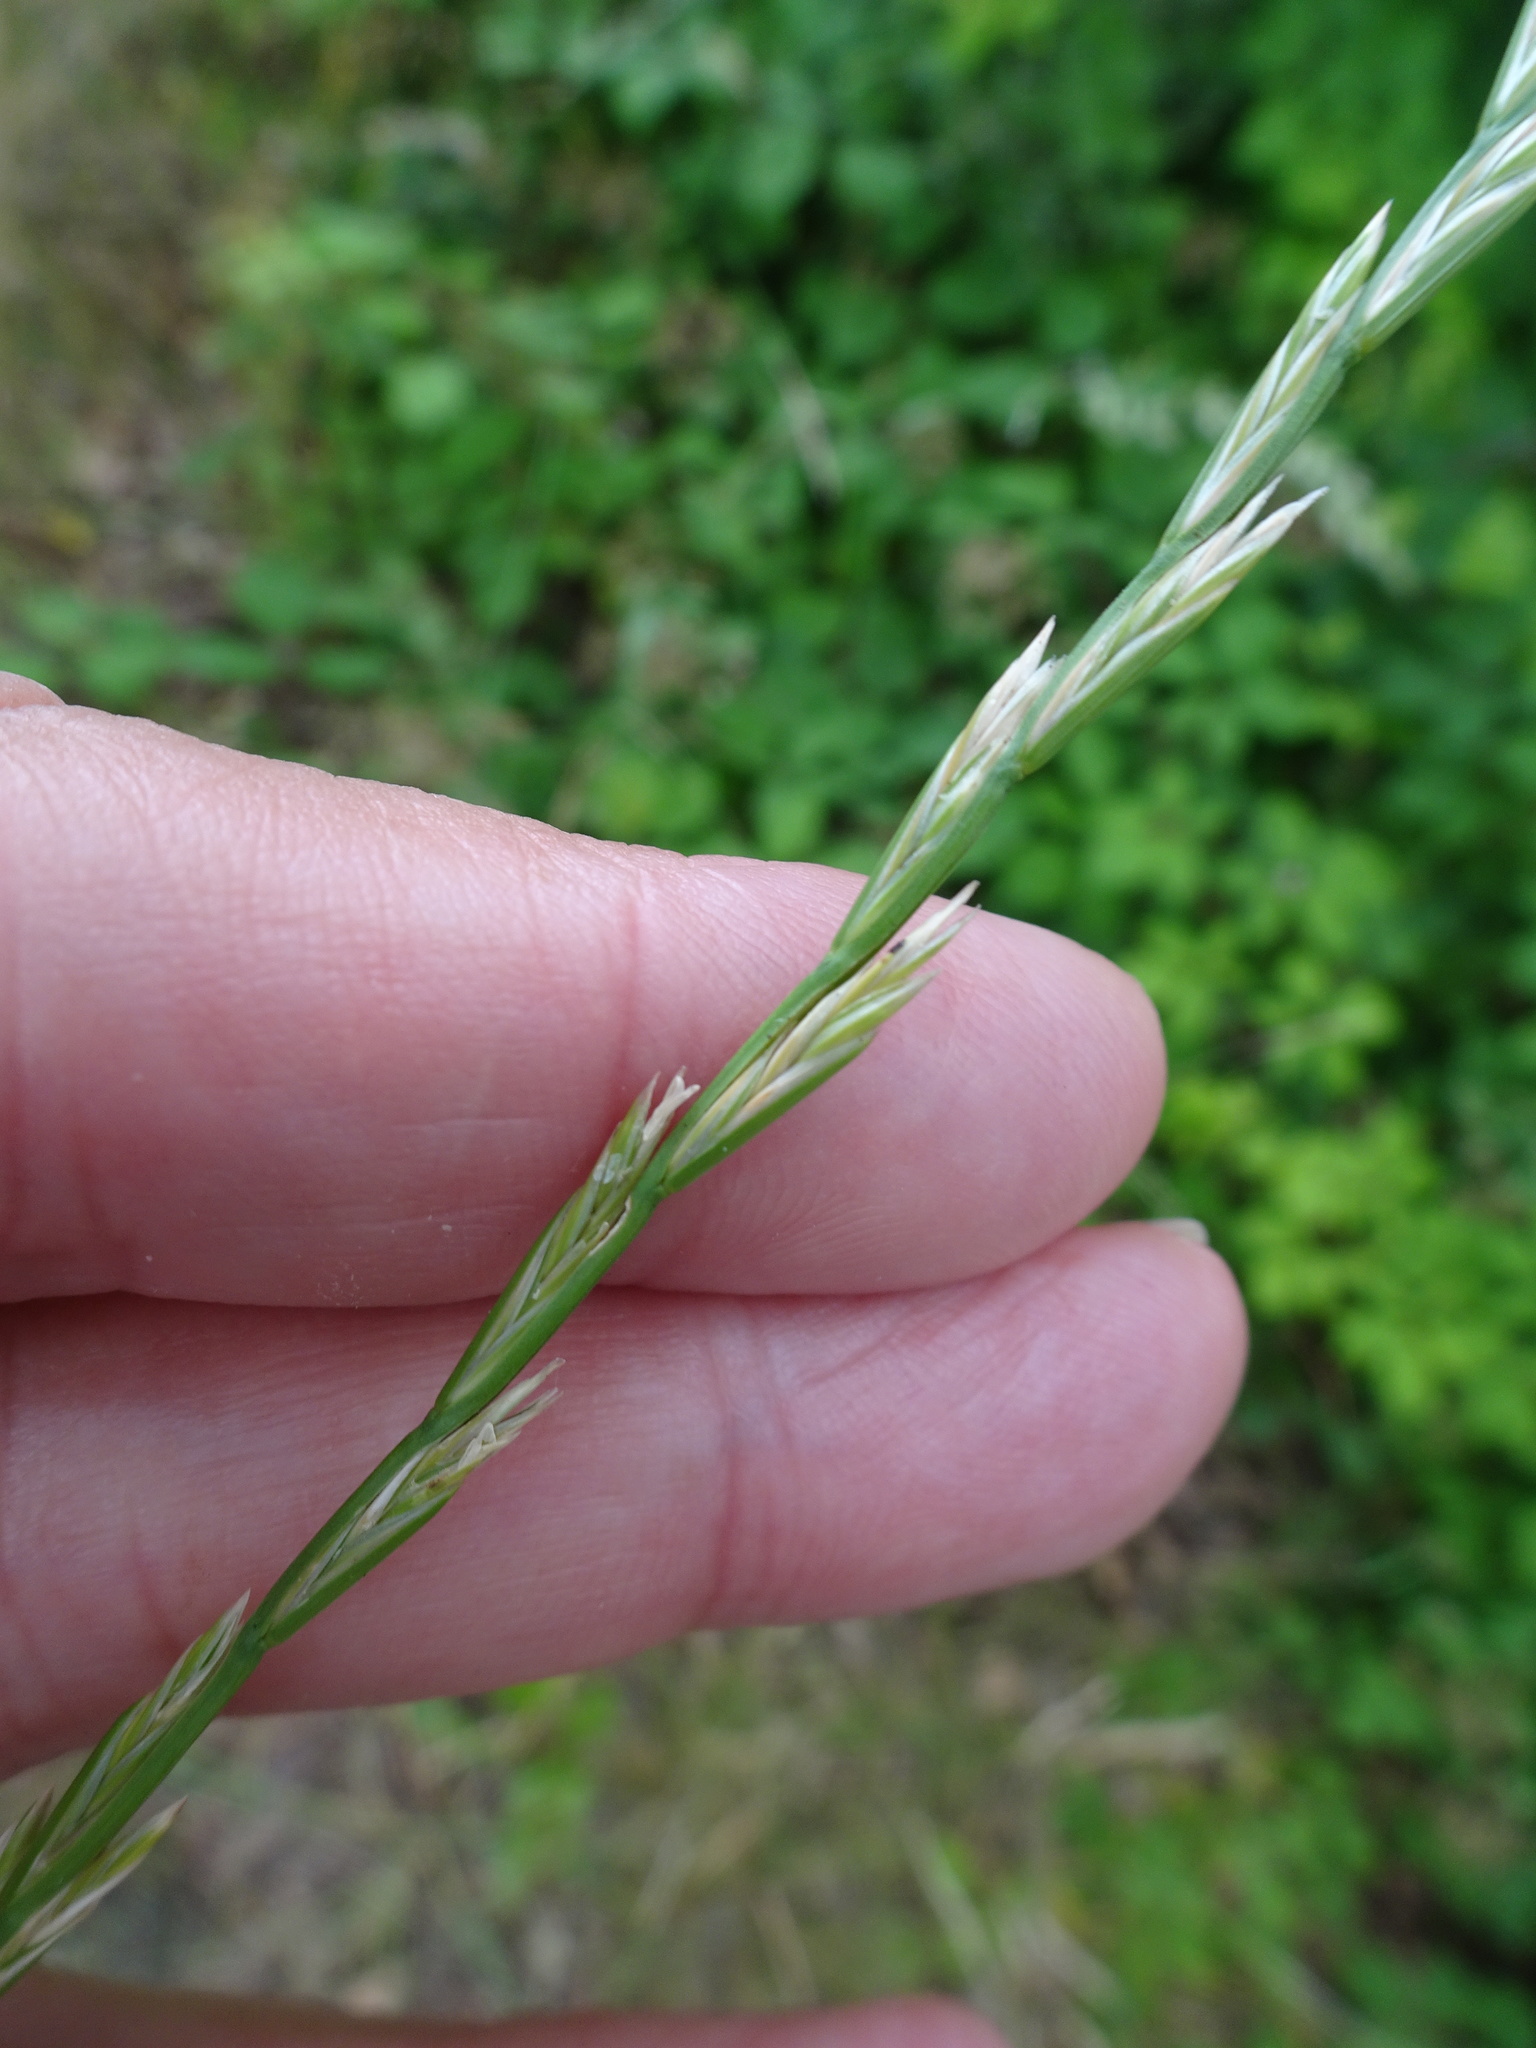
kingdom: Plantae
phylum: Tracheophyta
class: Liliopsida
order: Poales
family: Poaceae
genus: Lolium
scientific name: Lolium perenne
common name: Perennial ryegrass
